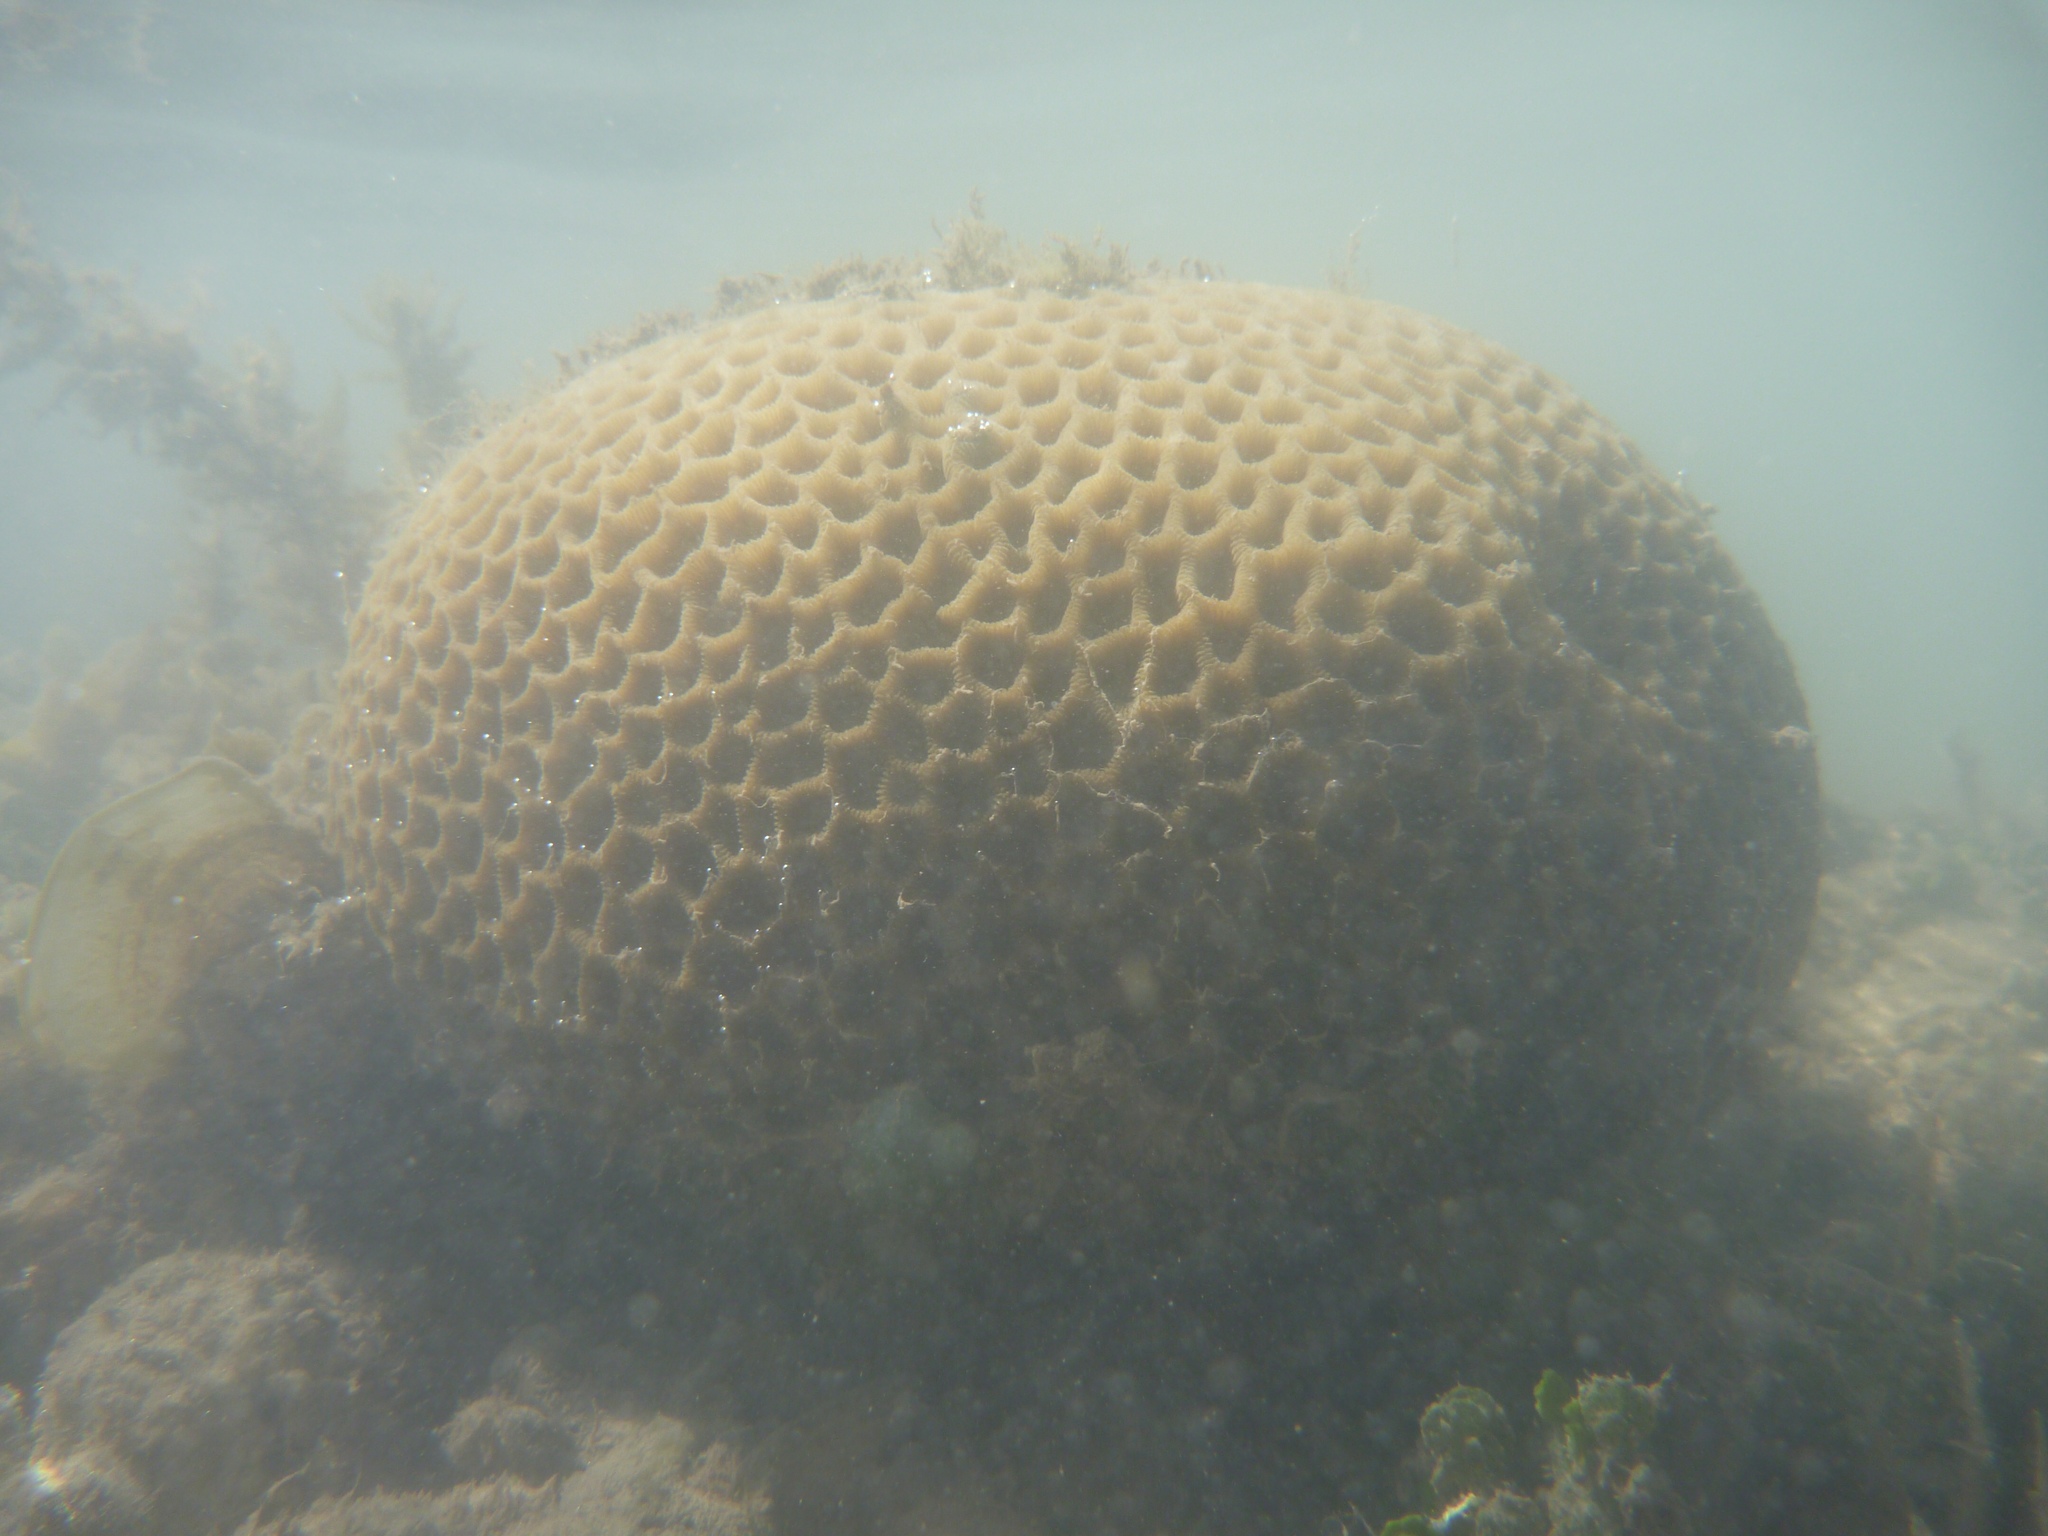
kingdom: Animalia
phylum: Cnidaria
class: Anthozoa
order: Scleractinia
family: Merulinidae
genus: Coelastrea
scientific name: Coelastrea aspera
